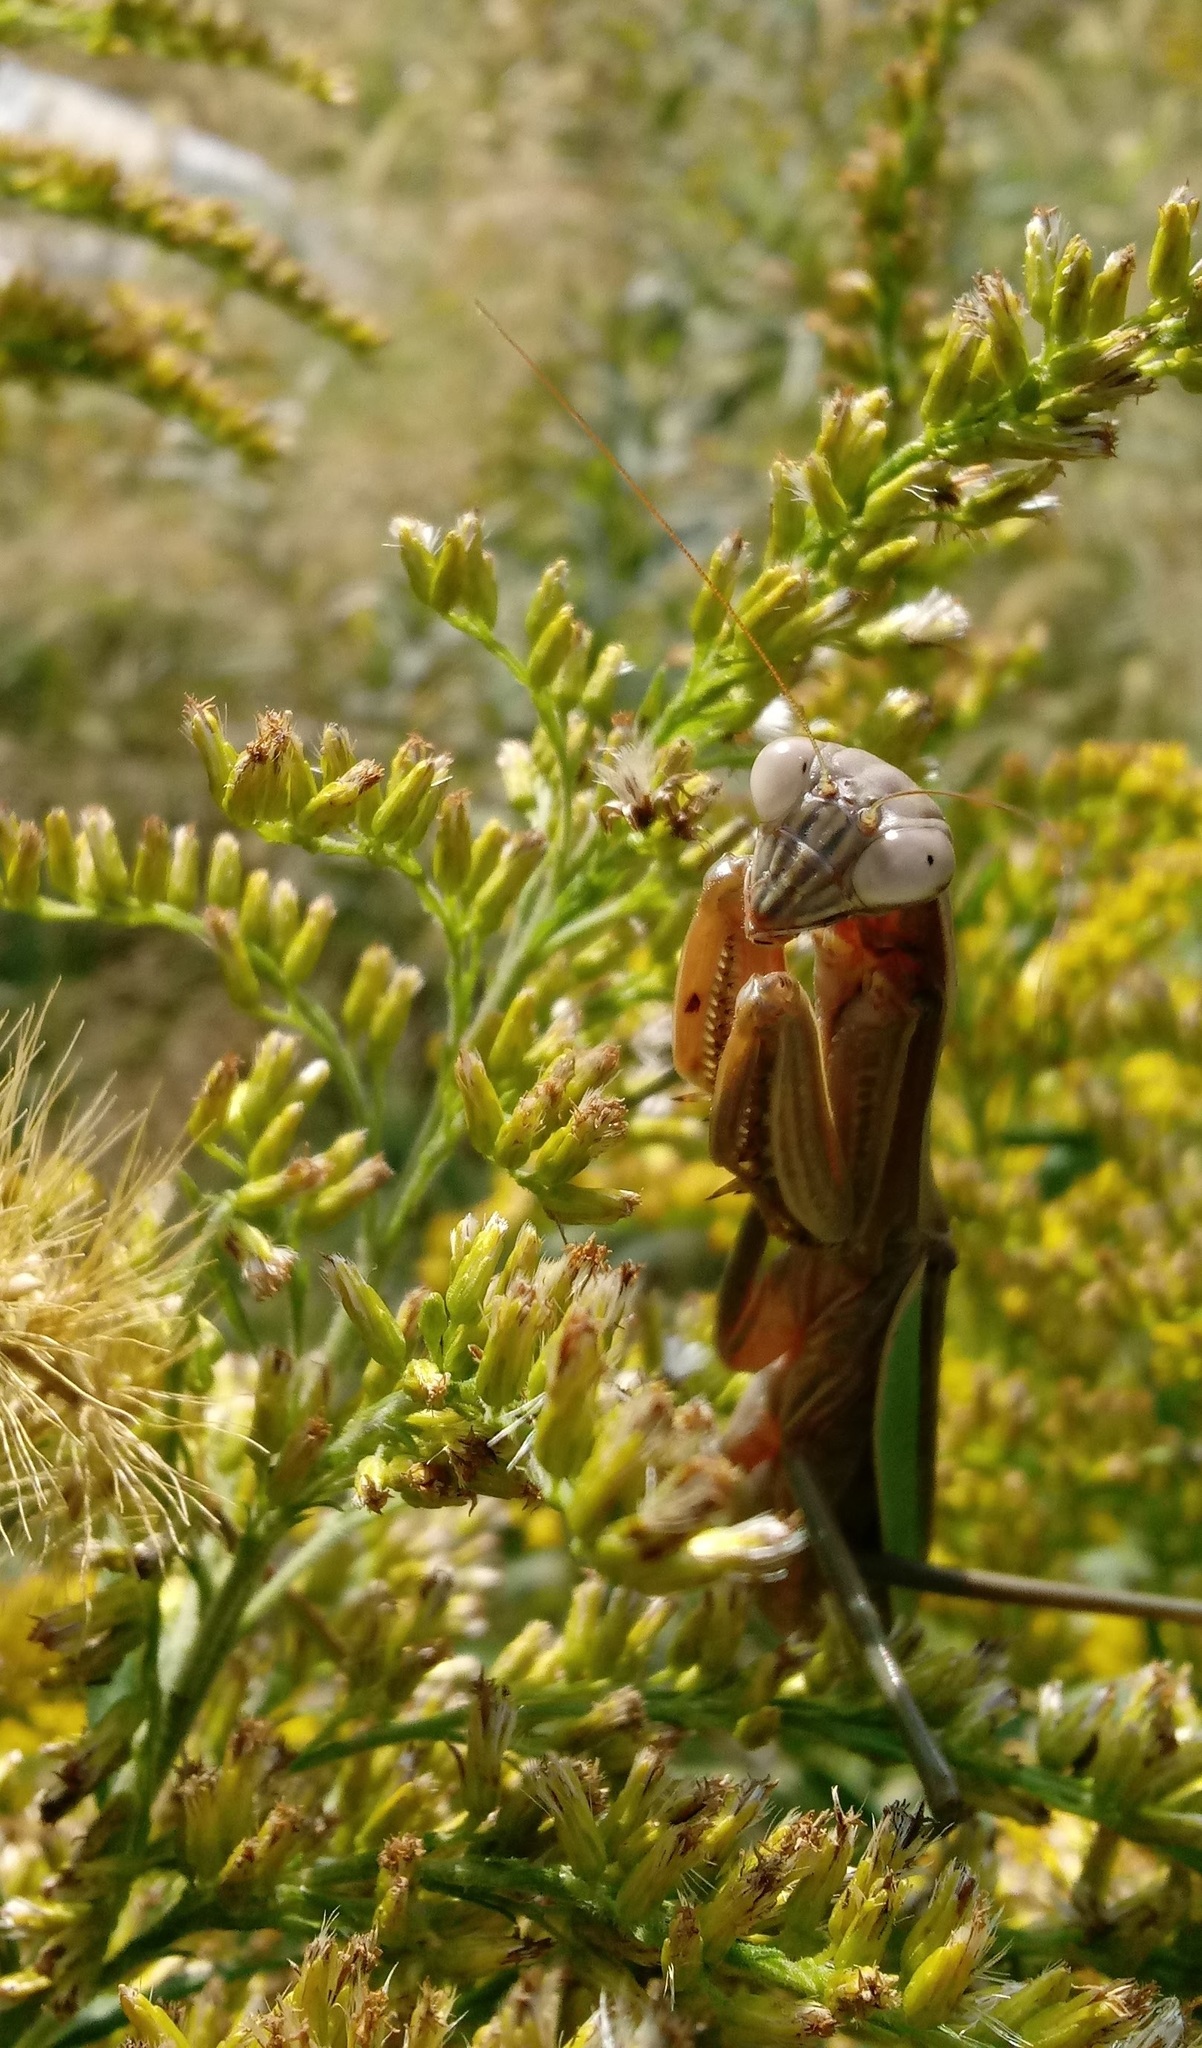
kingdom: Animalia
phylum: Arthropoda
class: Insecta
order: Mantodea
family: Mantidae
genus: Tenodera
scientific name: Tenodera sinensis
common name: Chinese mantis
